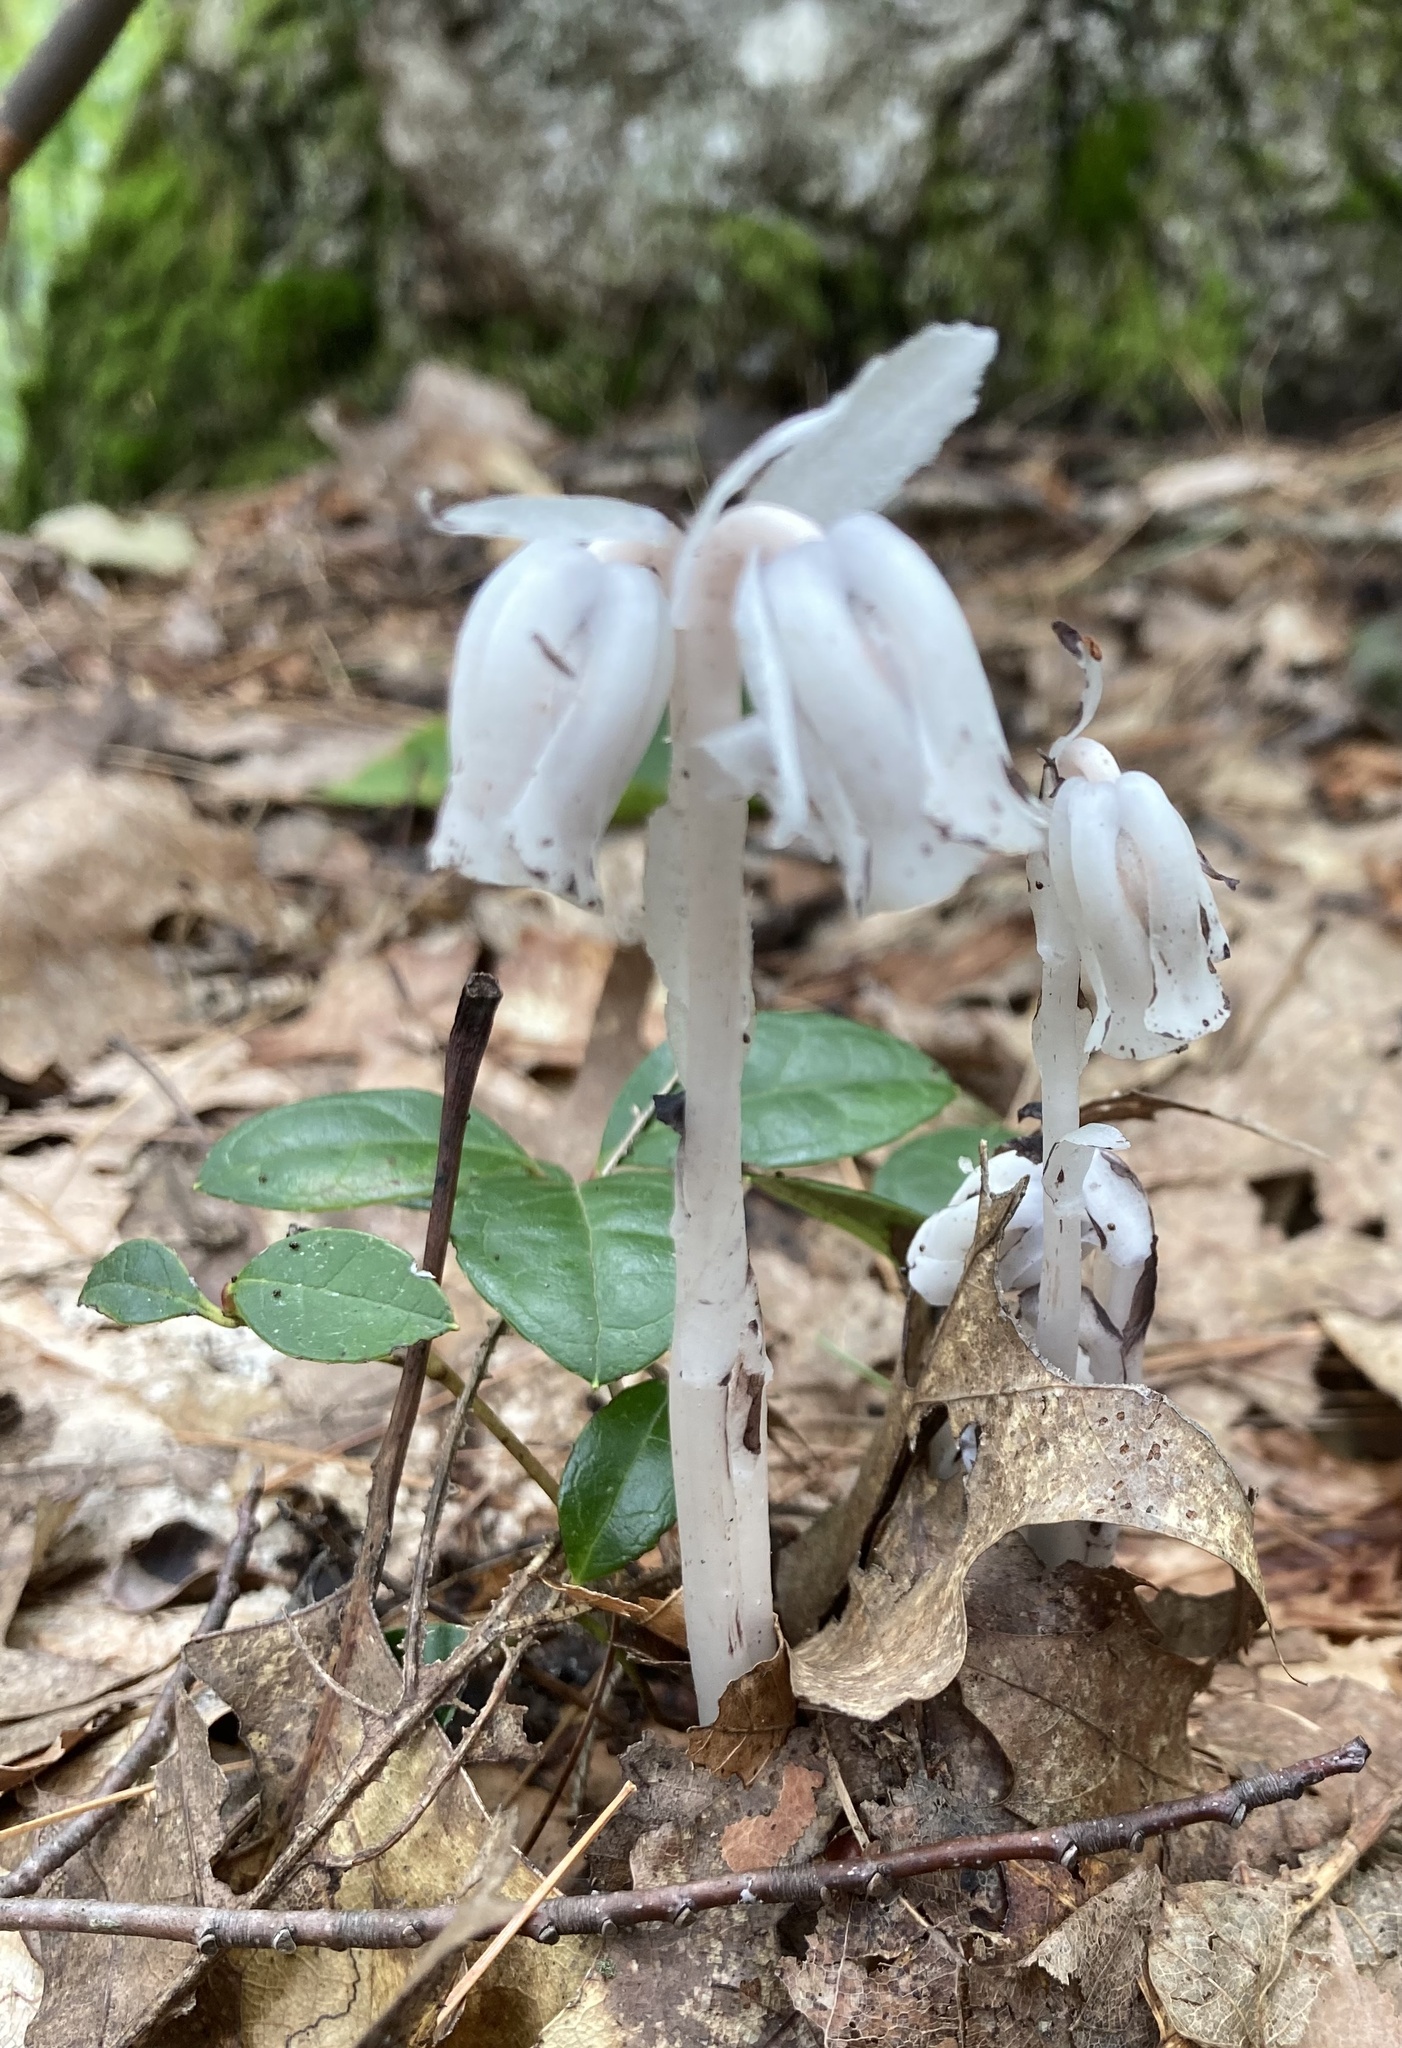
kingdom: Plantae
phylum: Tracheophyta
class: Magnoliopsida
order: Ericales
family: Ericaceae
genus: Monotropa
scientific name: Monotropa uniflora
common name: Convulsion root
